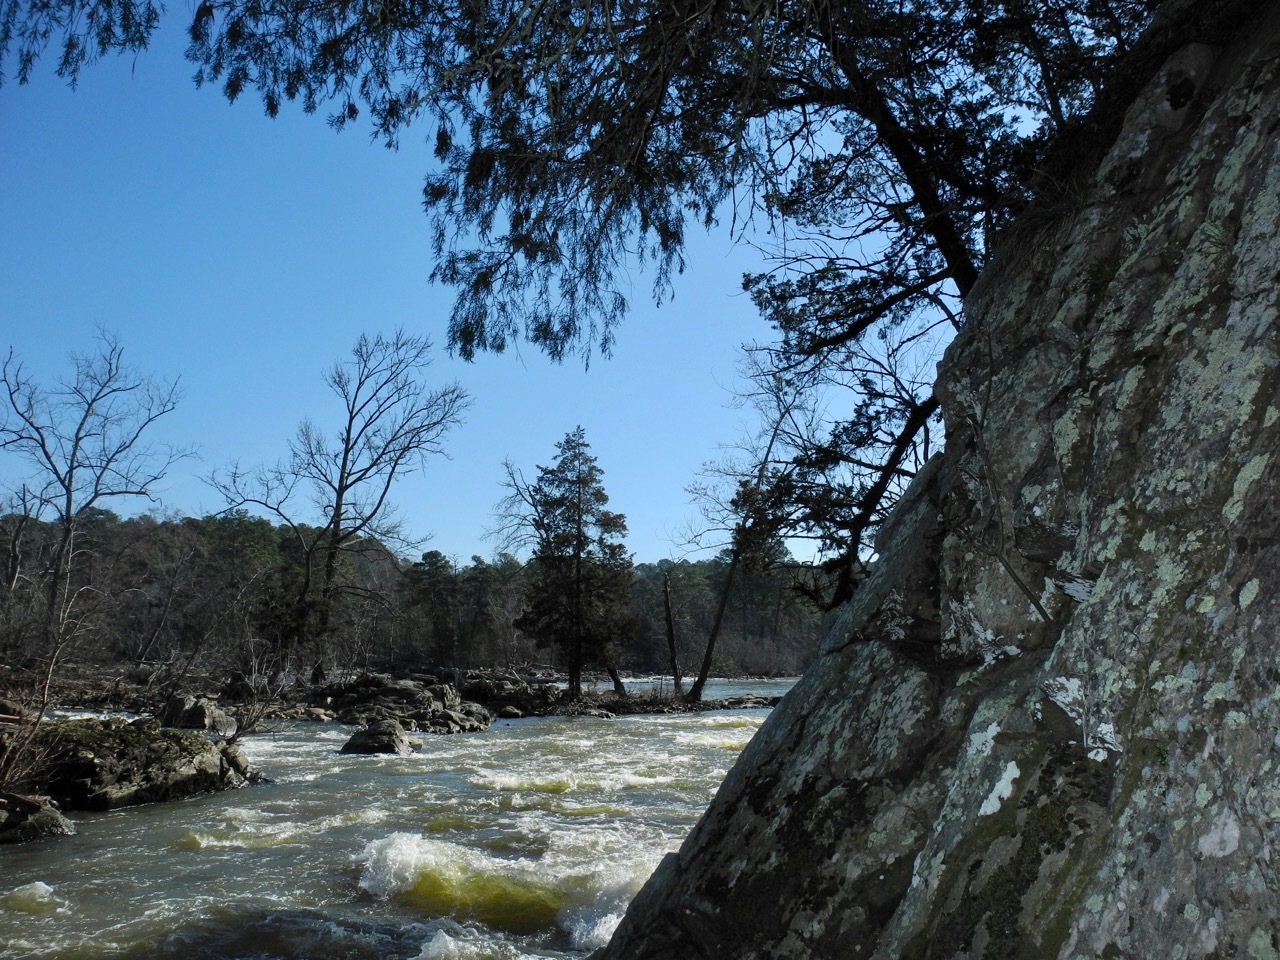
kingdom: Plantae
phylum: Tracheophyta
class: Pinopsida
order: Pinales
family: Cupressaceae
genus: Juniperus
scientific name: Juniperus virginiana
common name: Red juniper
